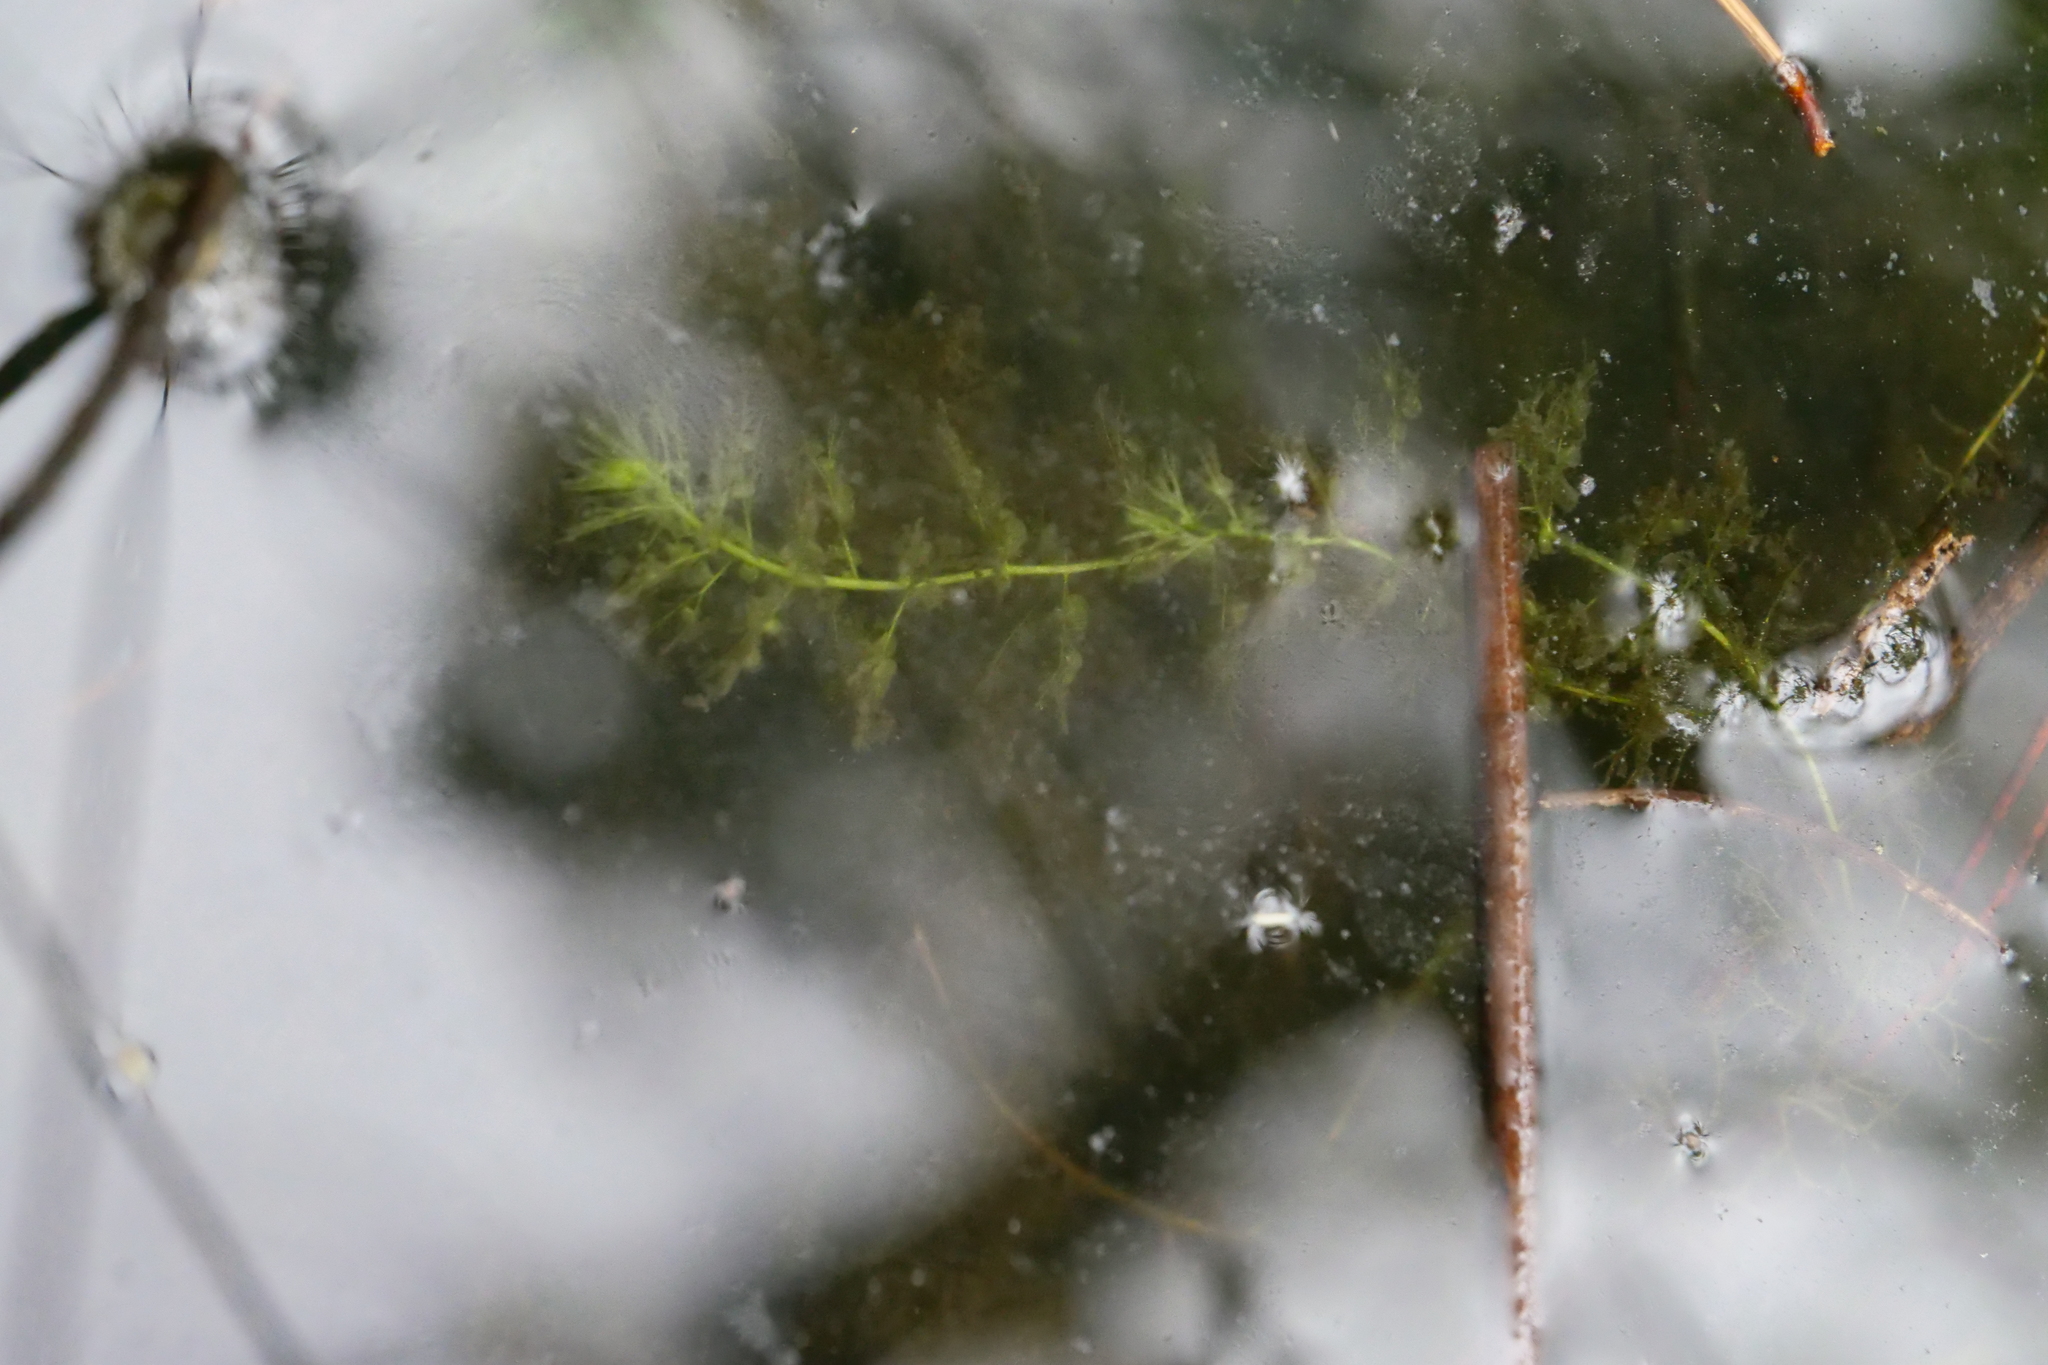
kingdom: Plantae
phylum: Tracheophyta
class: Magnoliopsida
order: Lamiales
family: Lentibulariaceae
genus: Utricularia
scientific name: Utricularia australis
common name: Bladderwort
